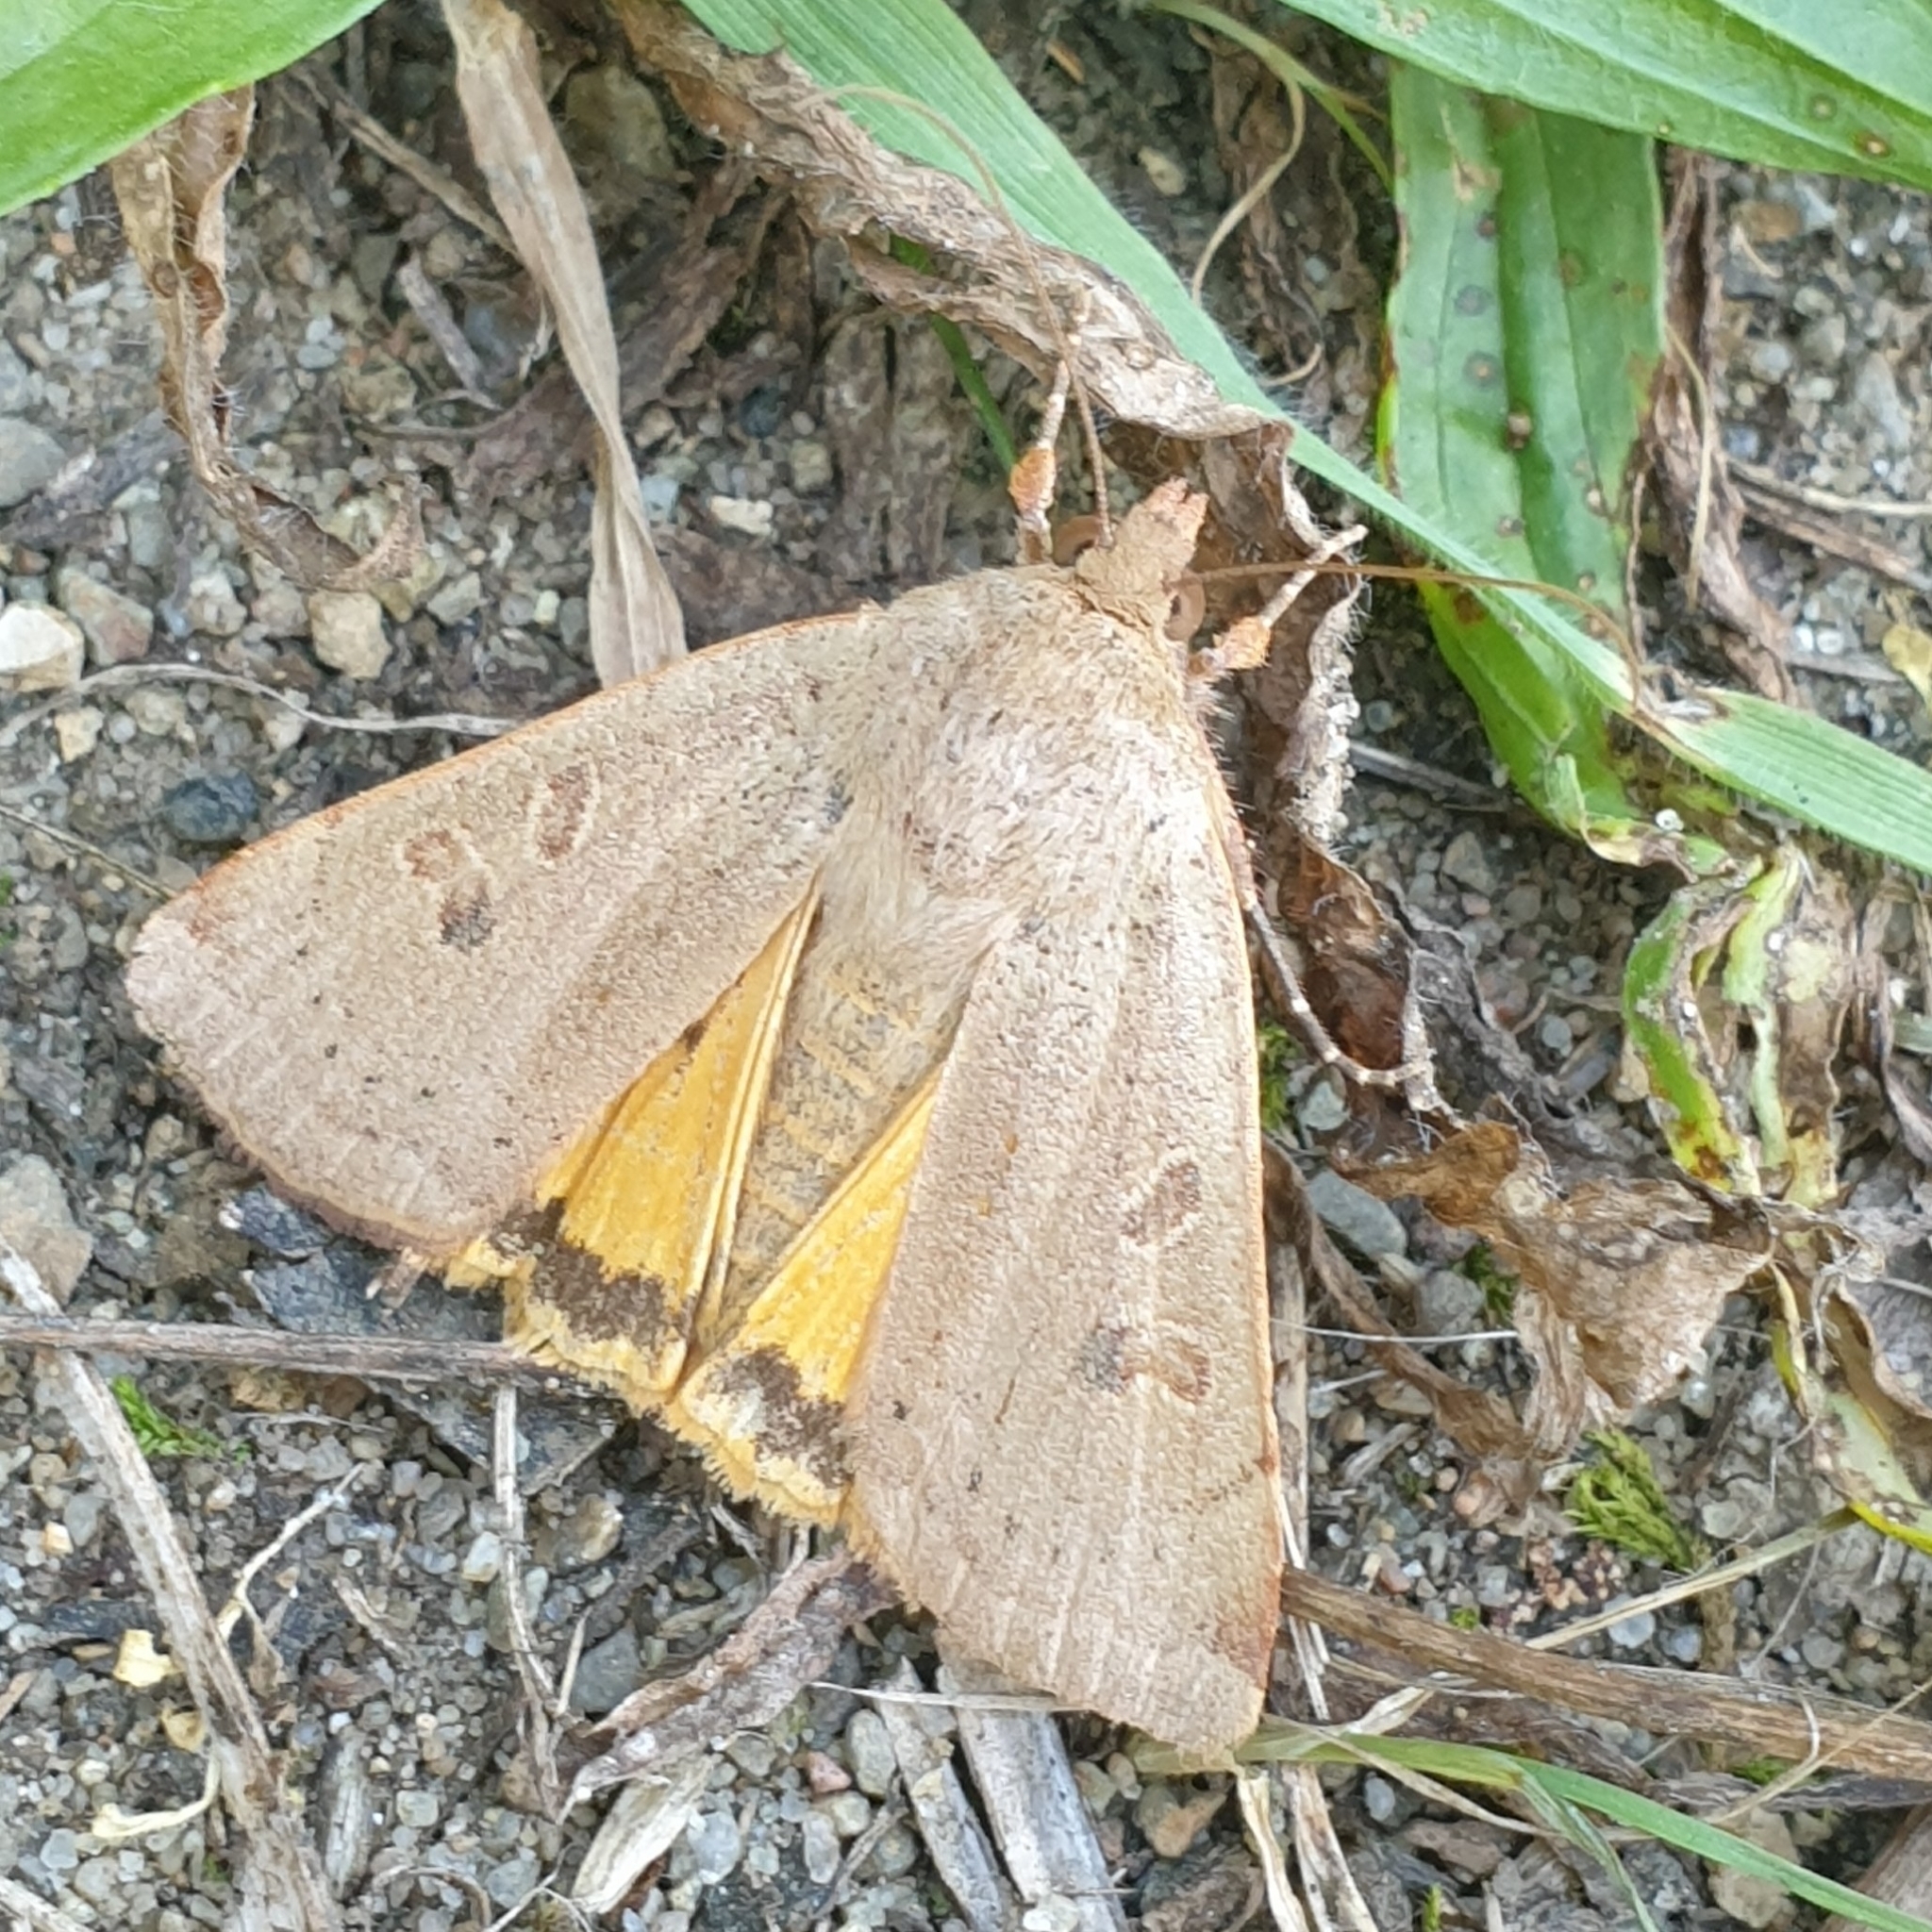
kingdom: Animalia
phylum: Arthropoda
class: Insecta
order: Lepidoptera
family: Noctuidae
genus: Noctua
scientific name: Noctua comes
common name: Lesser yellow underwing
